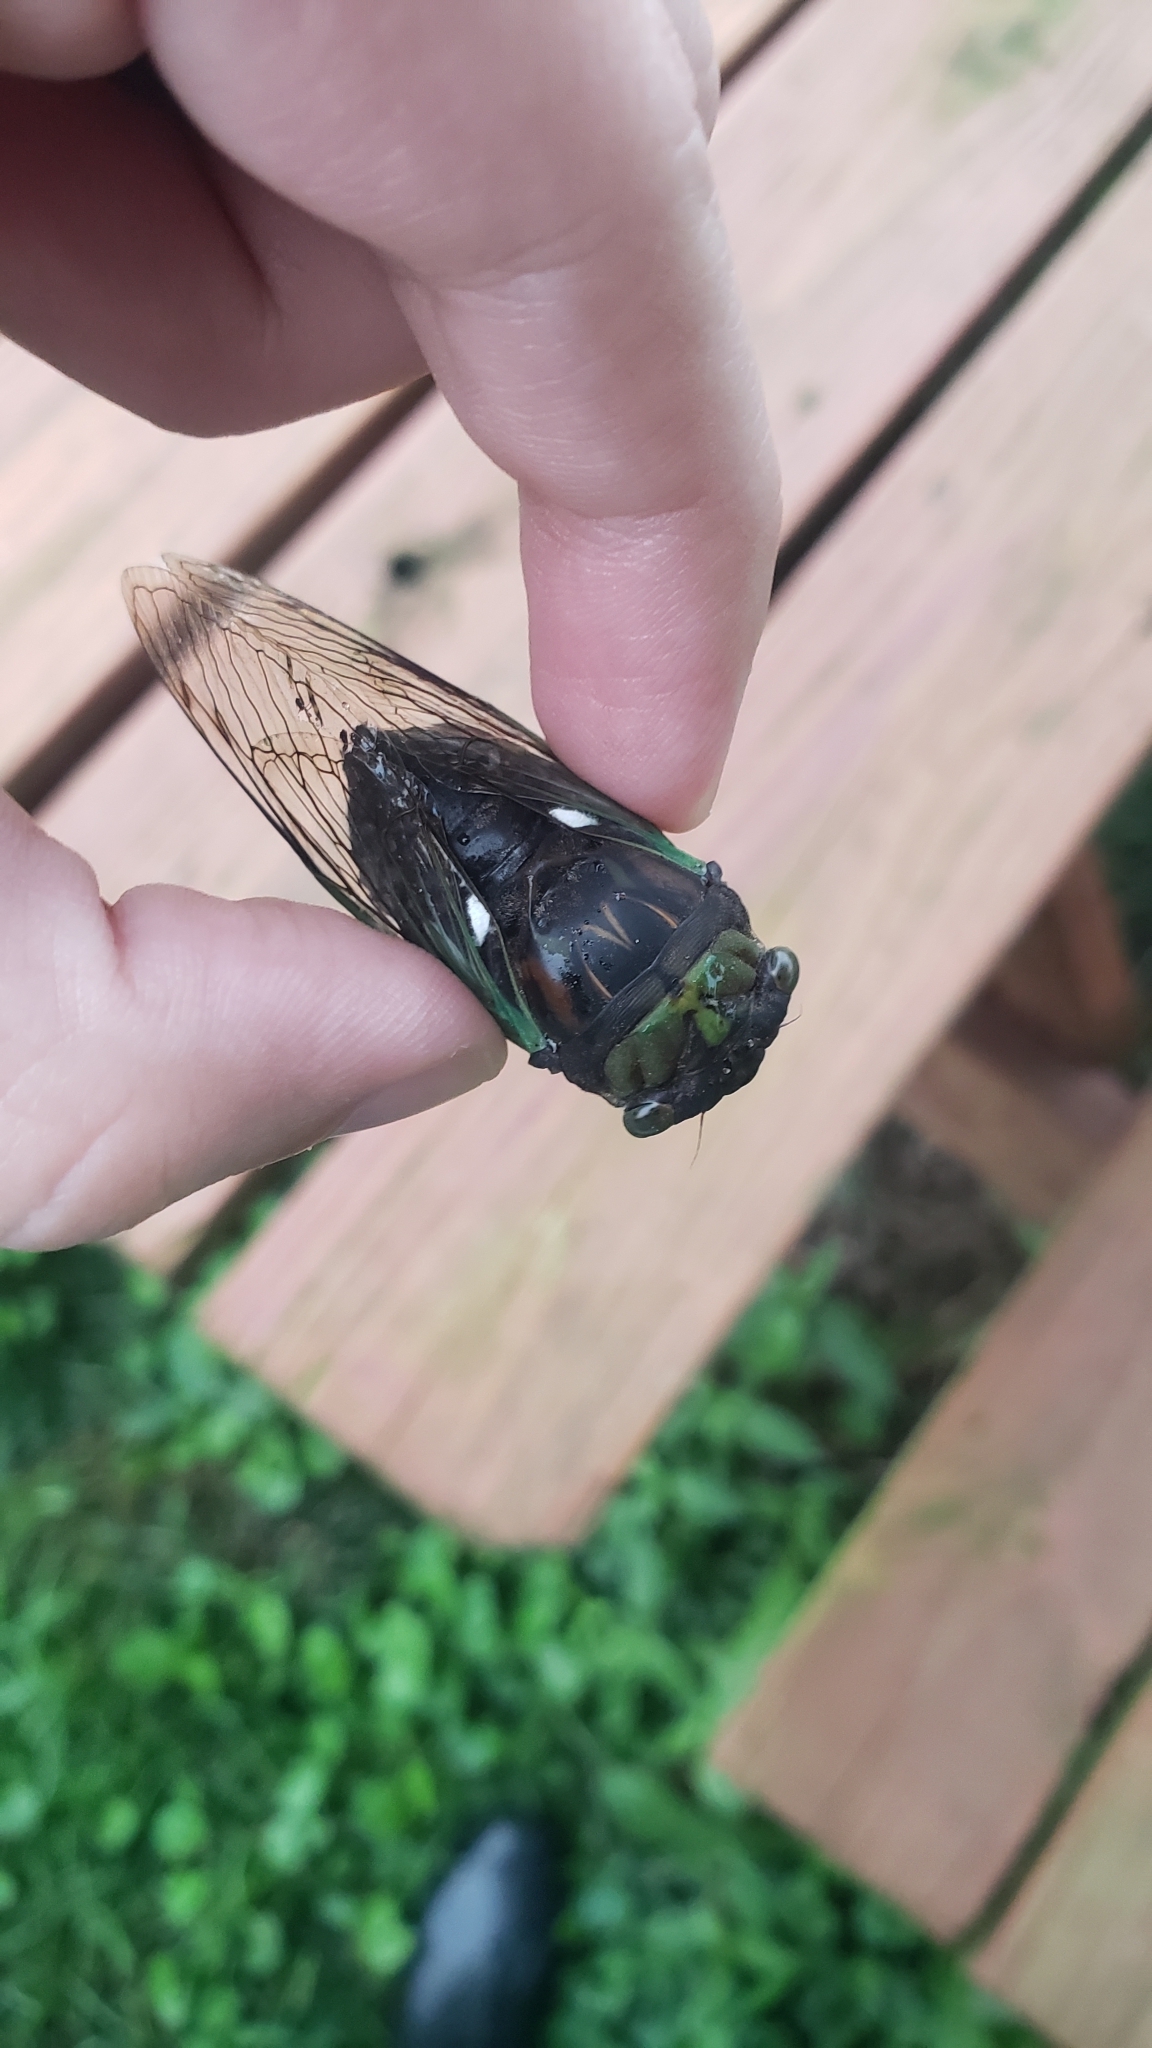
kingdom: Animalia
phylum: Arthropoda
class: Insecta
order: Hemiptera
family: Cicadidae
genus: Neotibicen
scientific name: Neotibicen tibicen
